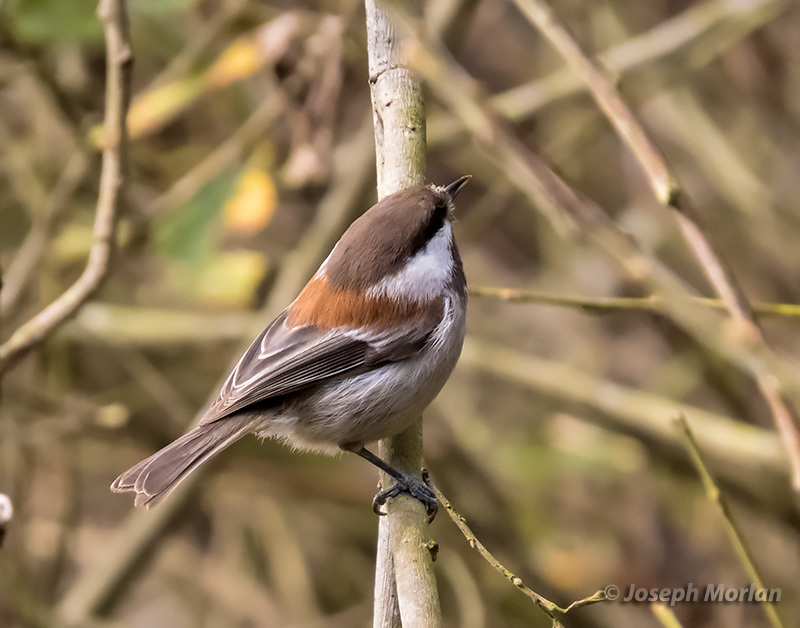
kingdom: Animalia
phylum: Chordata
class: Aves
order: Passeriformes
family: Paridae
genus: Poecile
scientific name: Poecile rufescens
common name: Chestnut-backed chickadee
